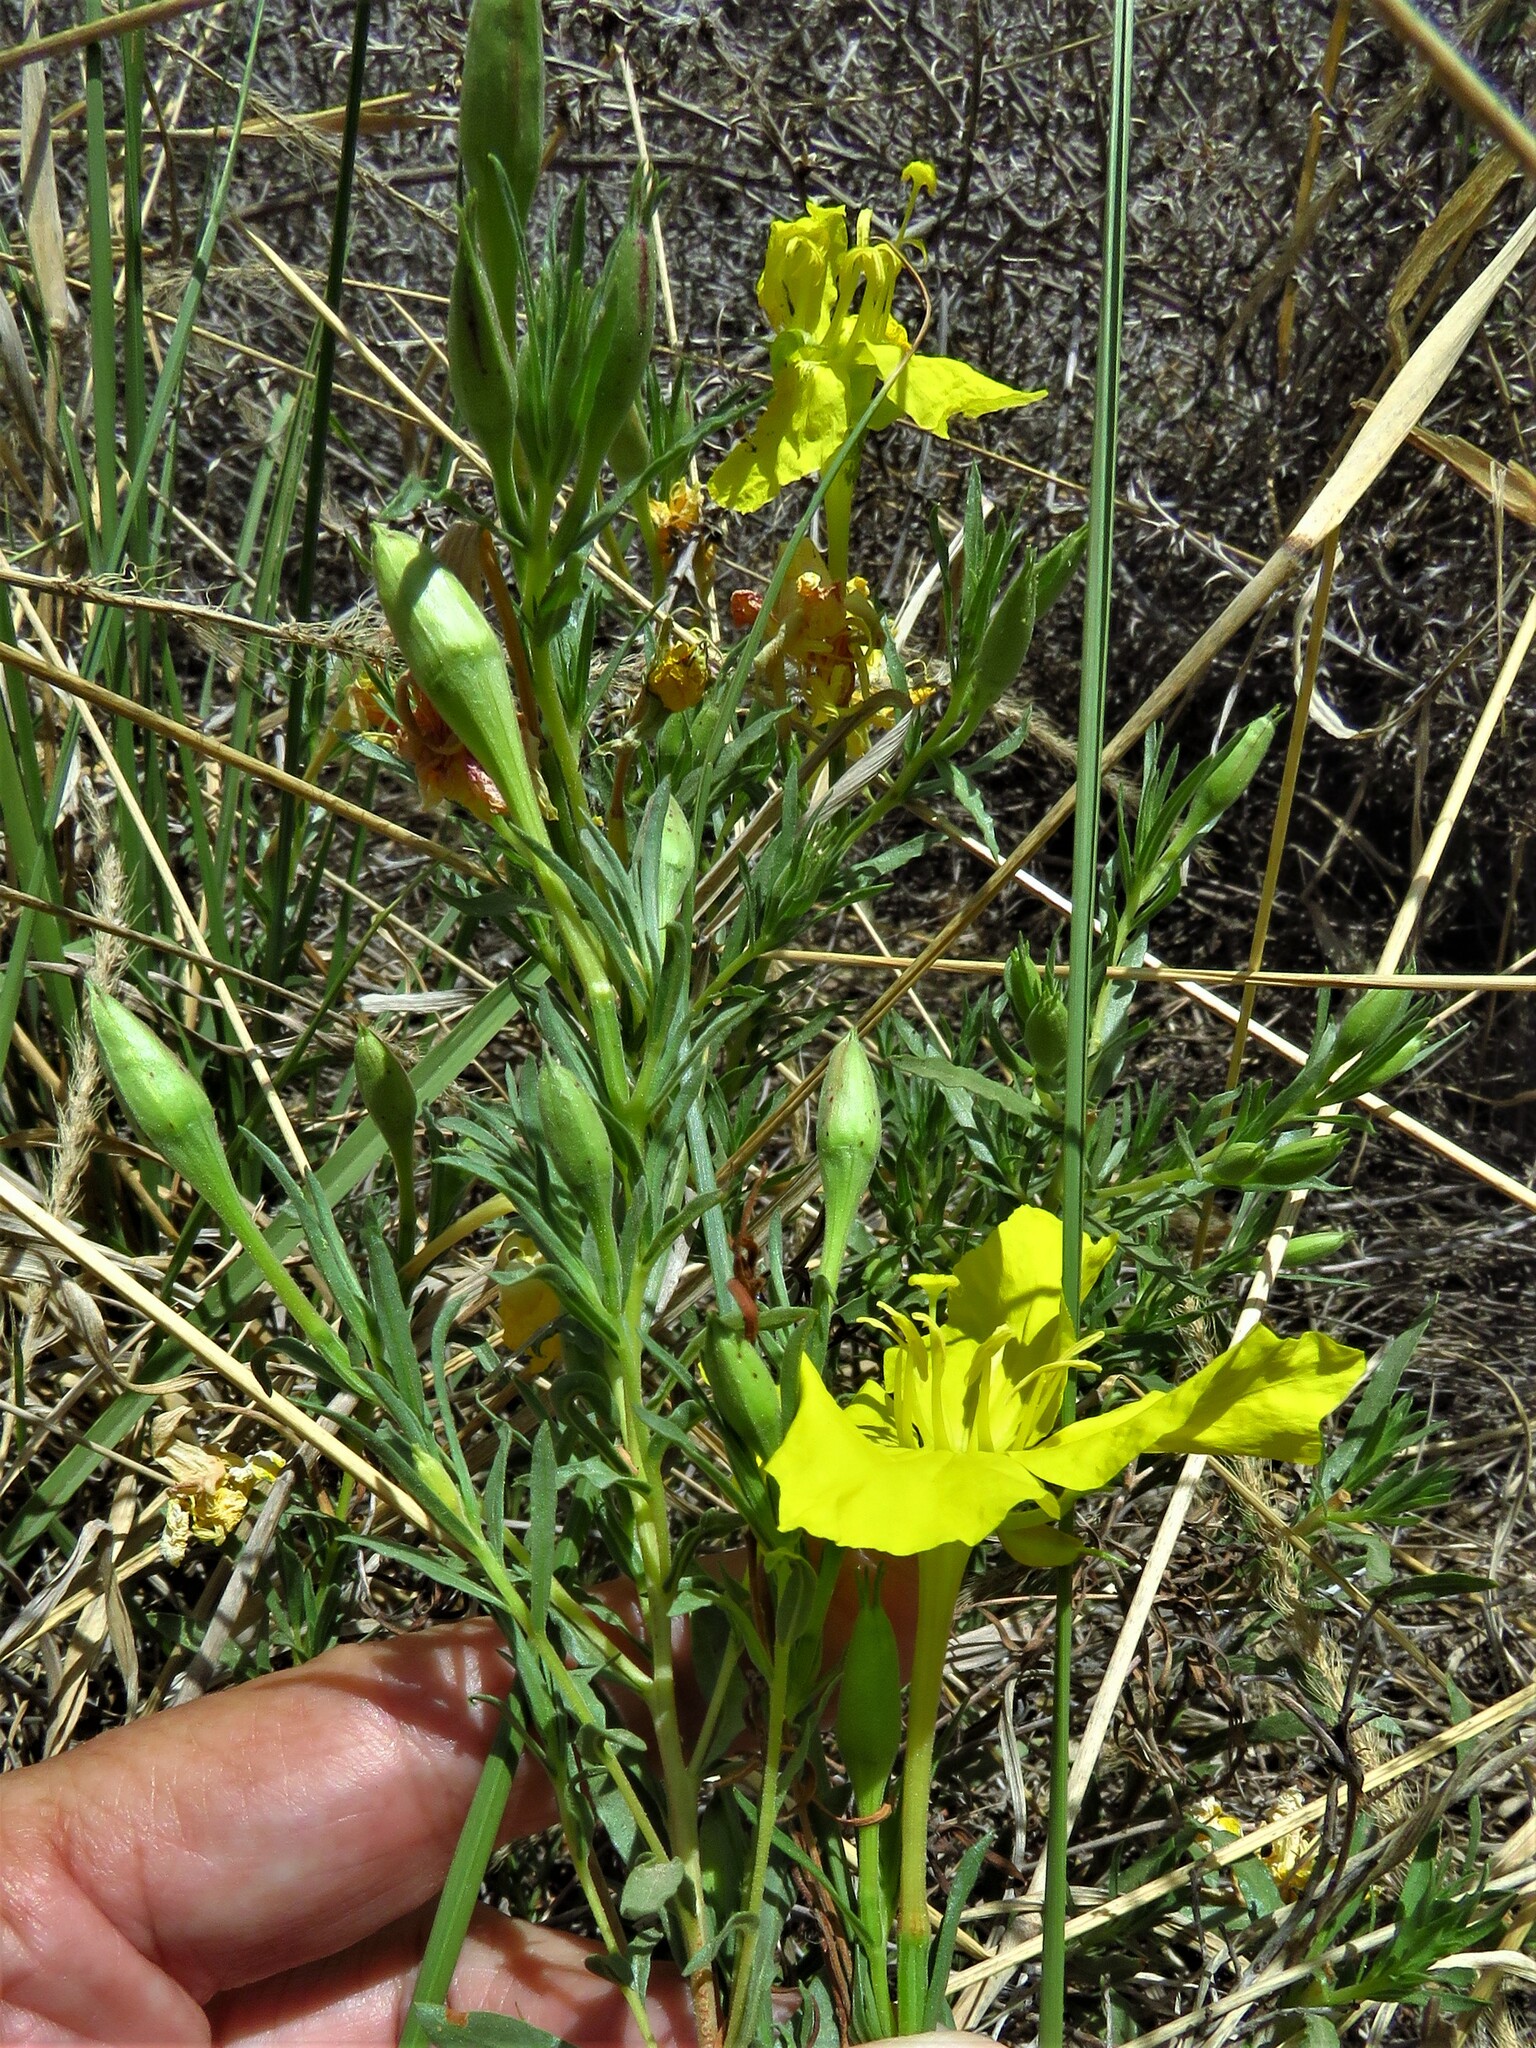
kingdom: Plantae
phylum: Tracheophyta
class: Magnoliopsida
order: Myrtales
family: Onagraceae
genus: Oenothera
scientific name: Oenothera hartwegii
